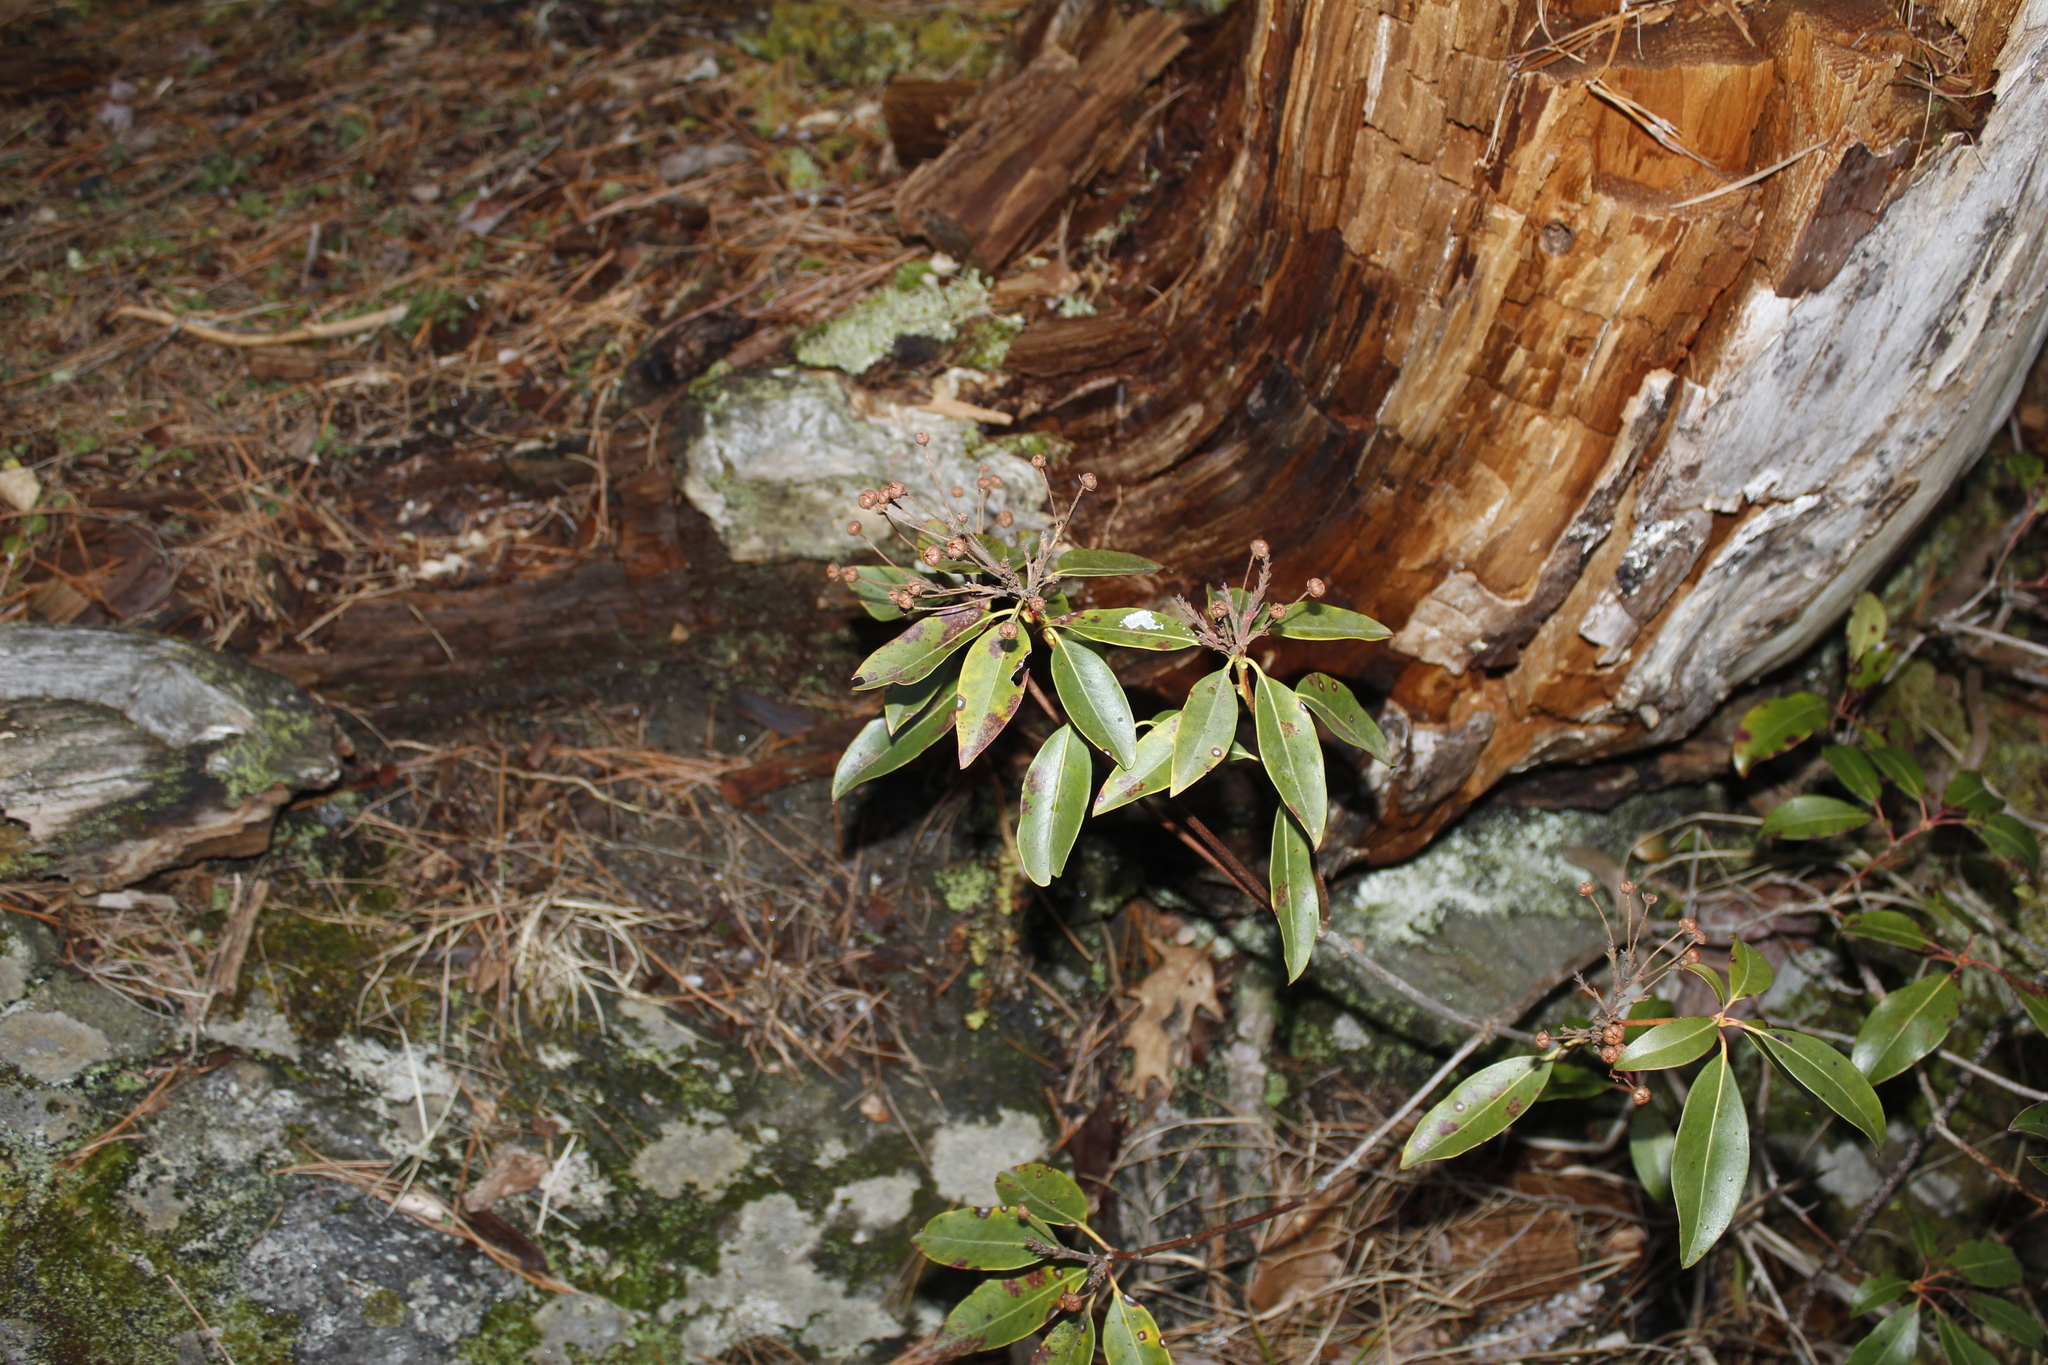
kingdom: Plantae
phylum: Tracheophyta
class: Magnoliopsida
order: Ericales
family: Ericaceae
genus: Kalmia
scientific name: Kalmia latifolia
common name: Mountain-laurel
